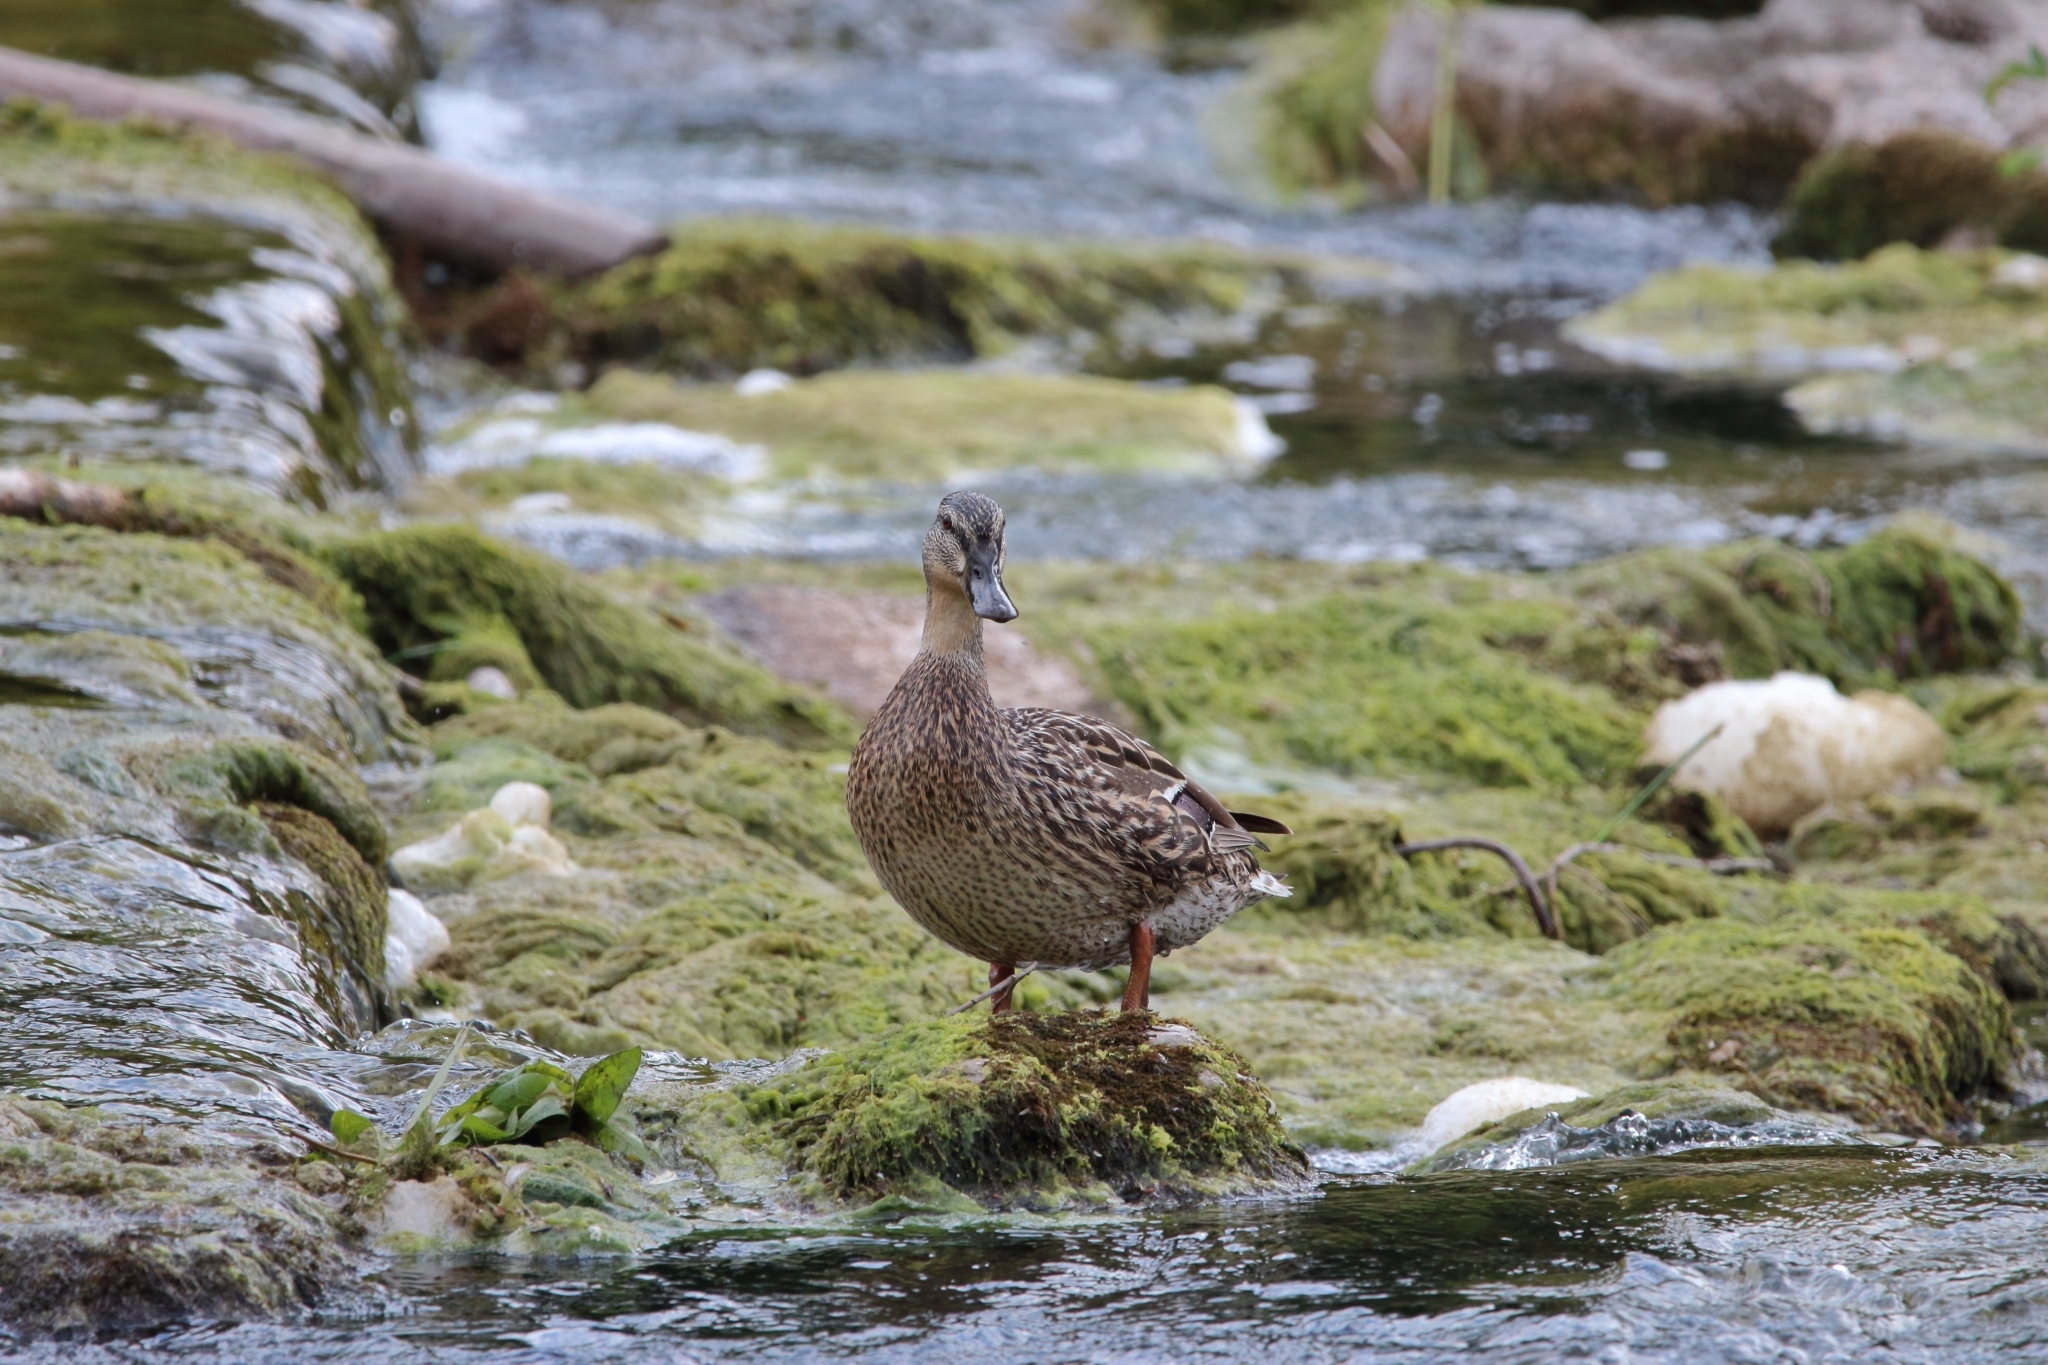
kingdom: Animalia
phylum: Chordata
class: Aves
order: Anseriformes
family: Anatidae
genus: Anas
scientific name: Anas platyrhynchos
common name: Mallard
